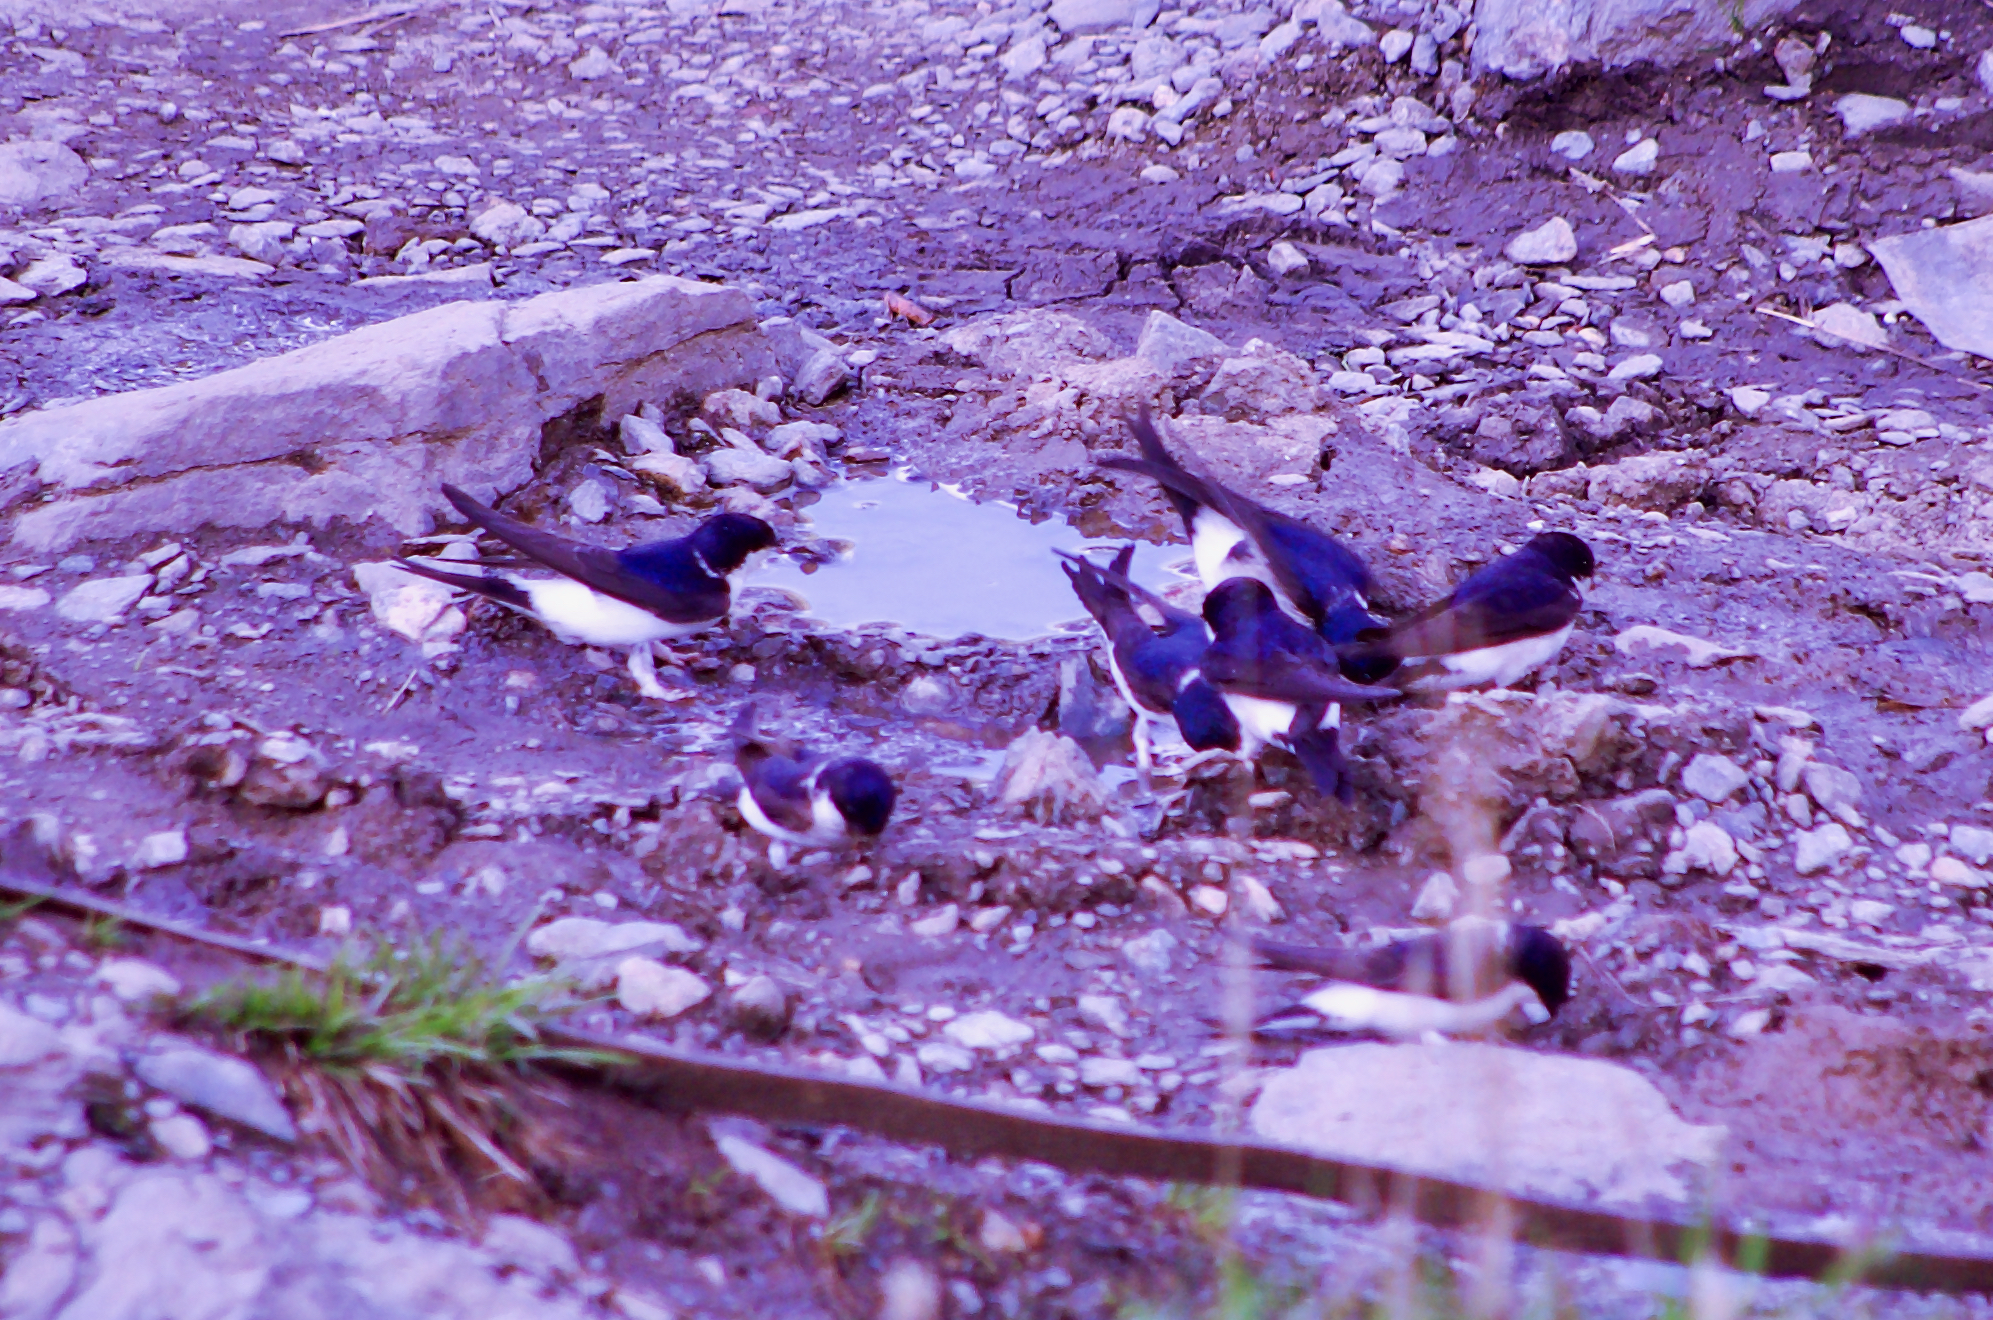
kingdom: Animalia
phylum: Chordata
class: Aves
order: Passeriformes
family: Hirundinidae
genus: Delichon
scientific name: Delichon urbicum
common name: Common house martin
